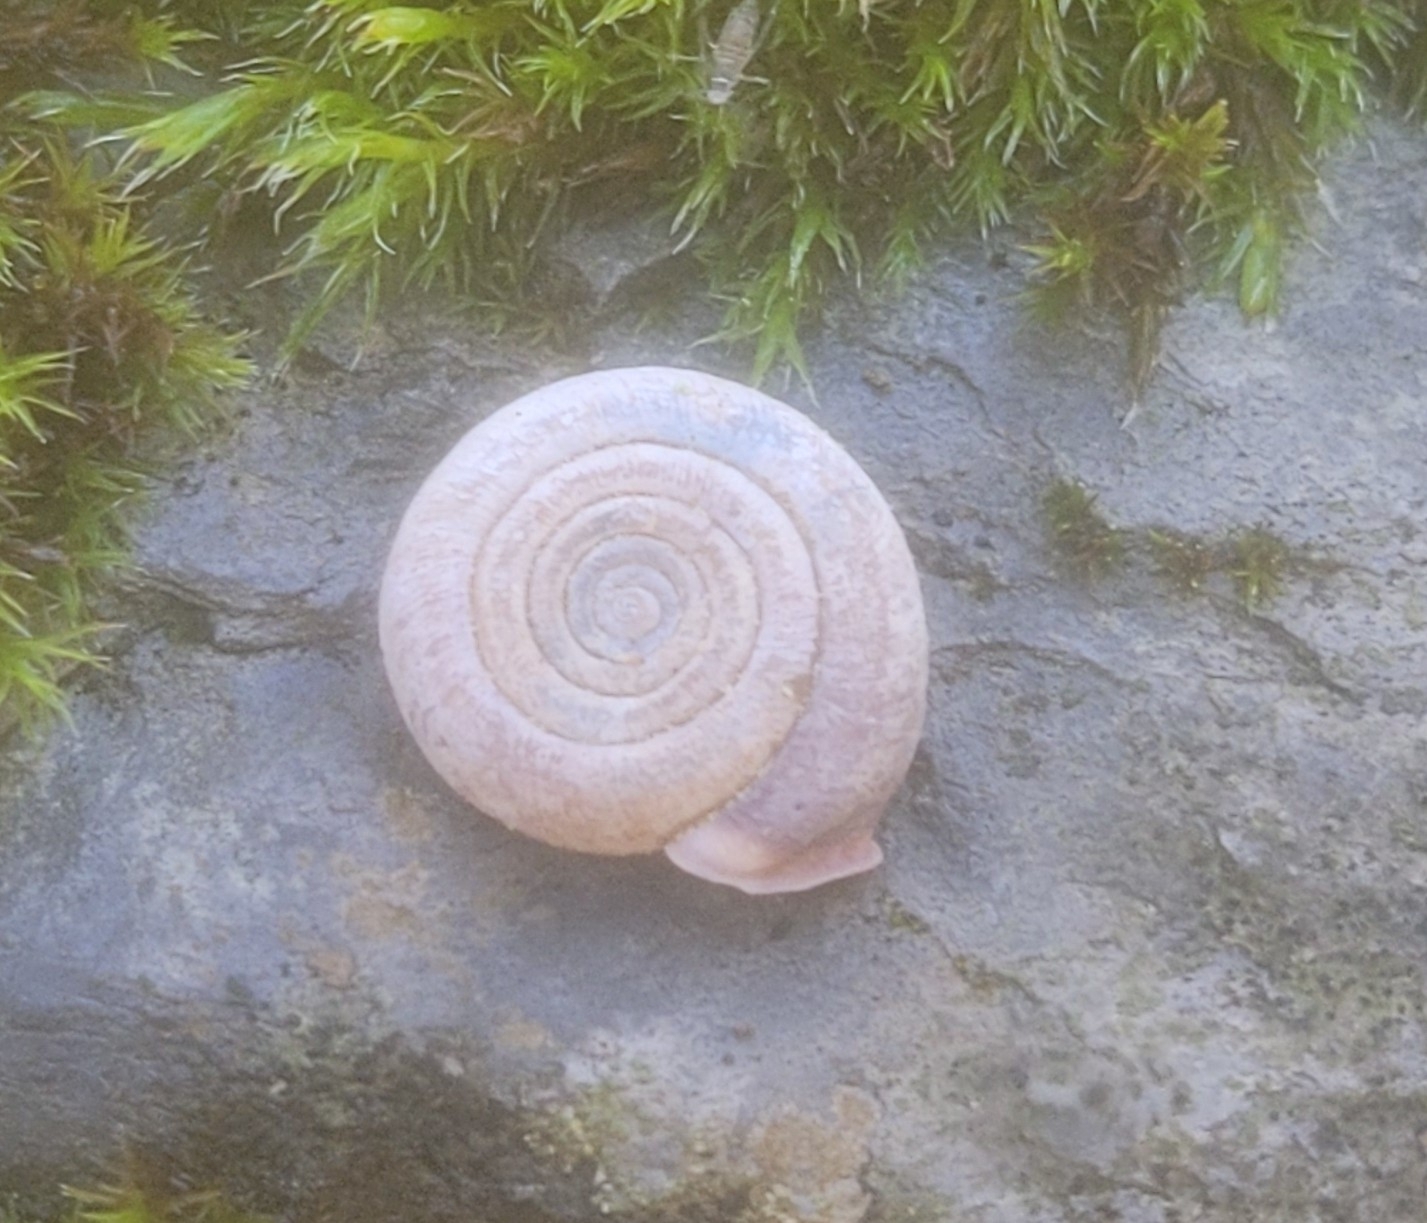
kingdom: Animalia
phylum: Mollusca
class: Gastropoda
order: Stylommatophora
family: Helicodontidae
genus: Helicodonta
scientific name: Helicodonta obvoluta
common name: Cheese snail
